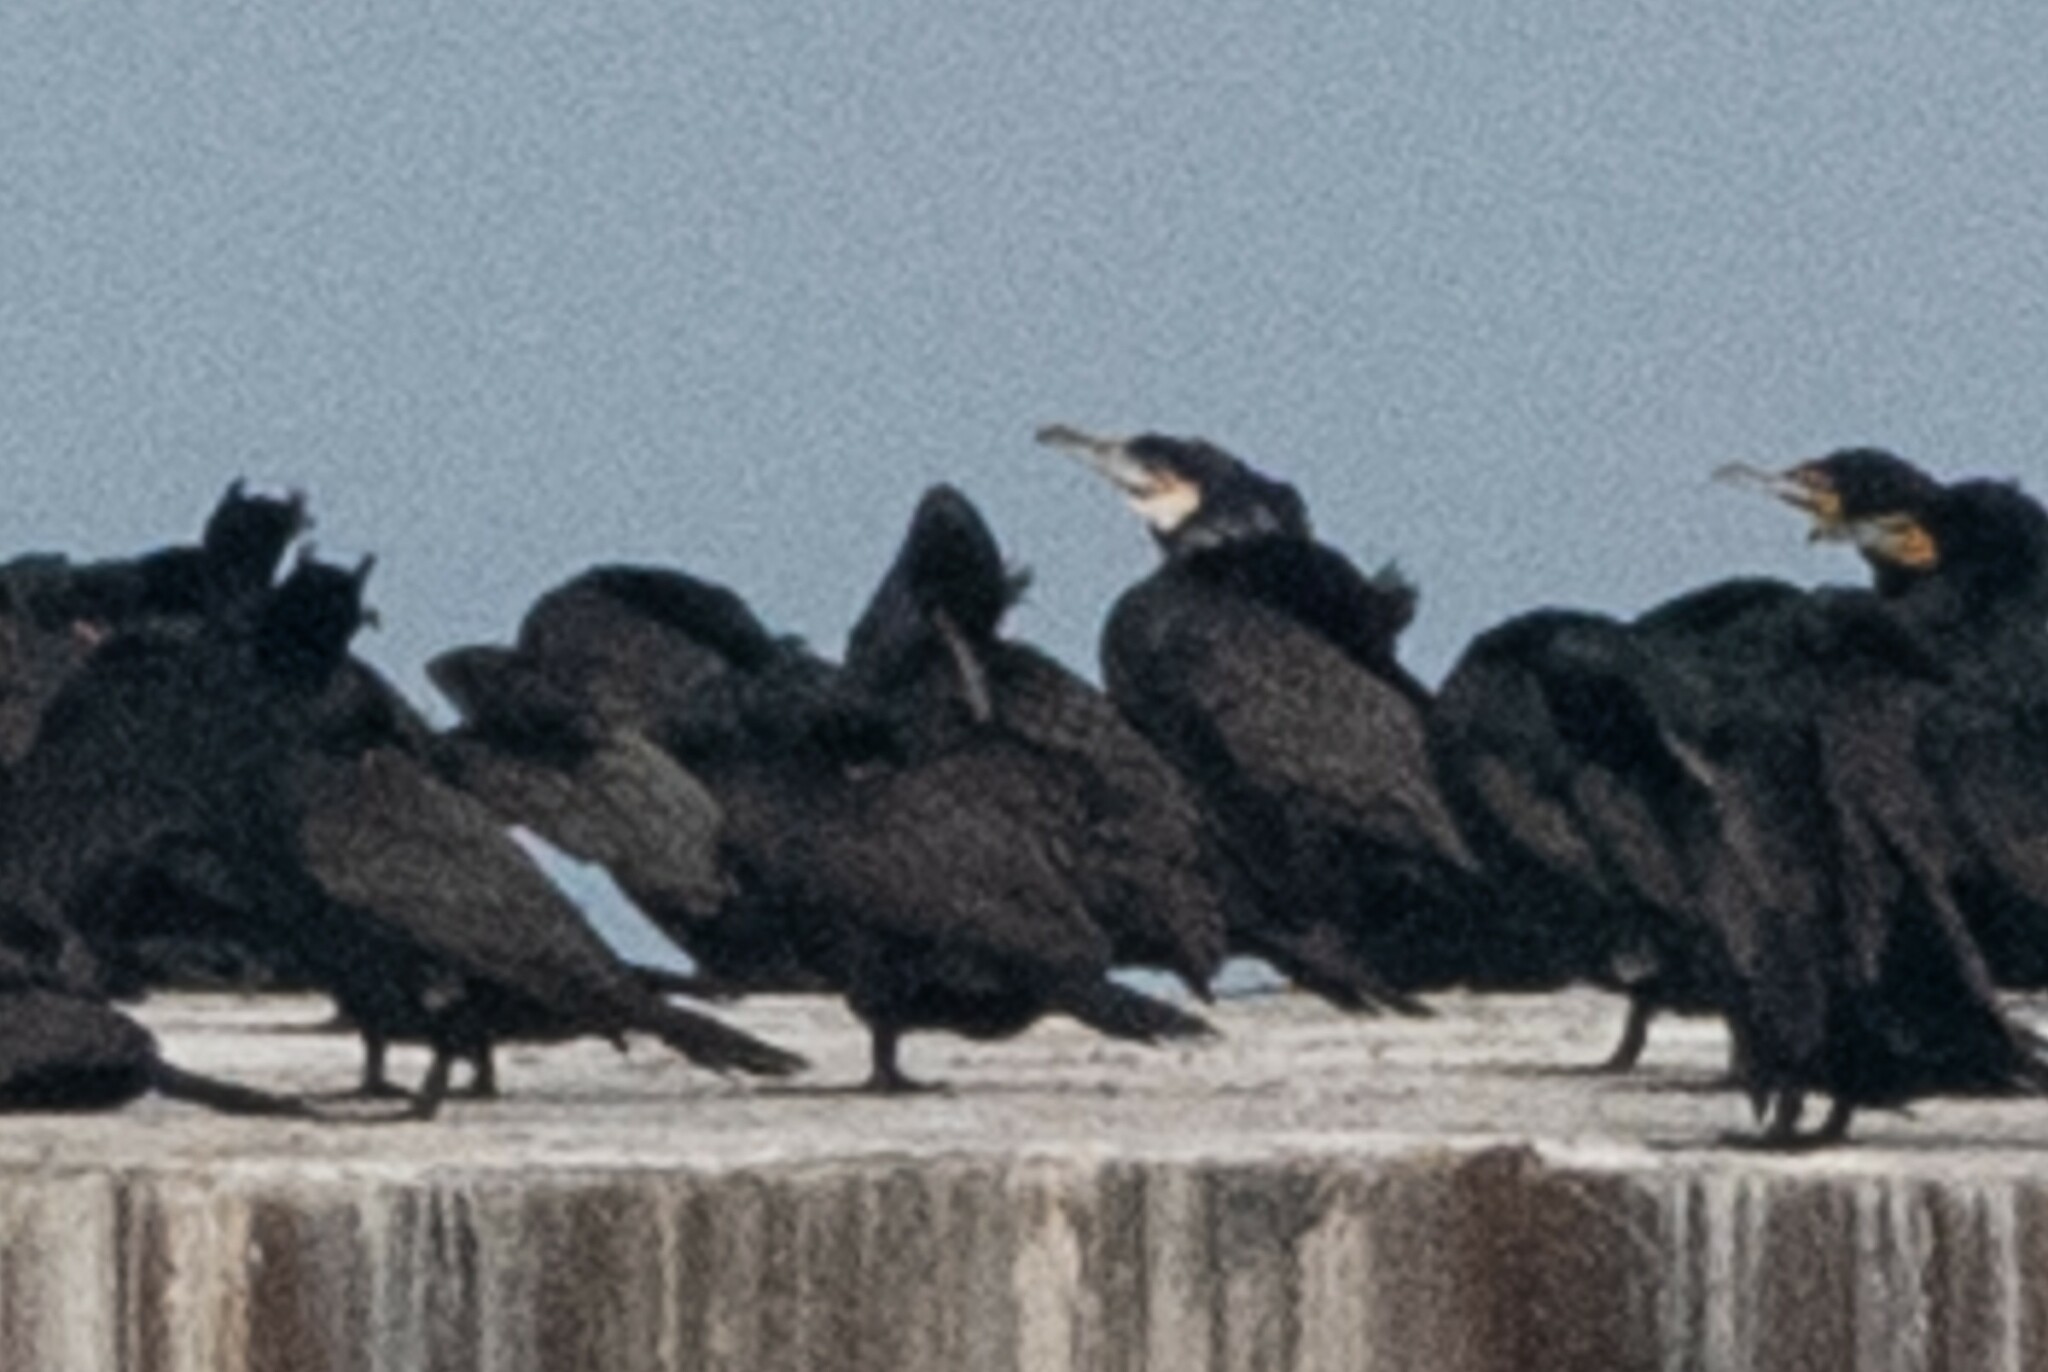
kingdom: Animalia
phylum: Chordata
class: Aves
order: Suliformes
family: Phalacrocoracidae
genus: Phalacrocorax
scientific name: Phalacrocorax carbo
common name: Great cormorant
